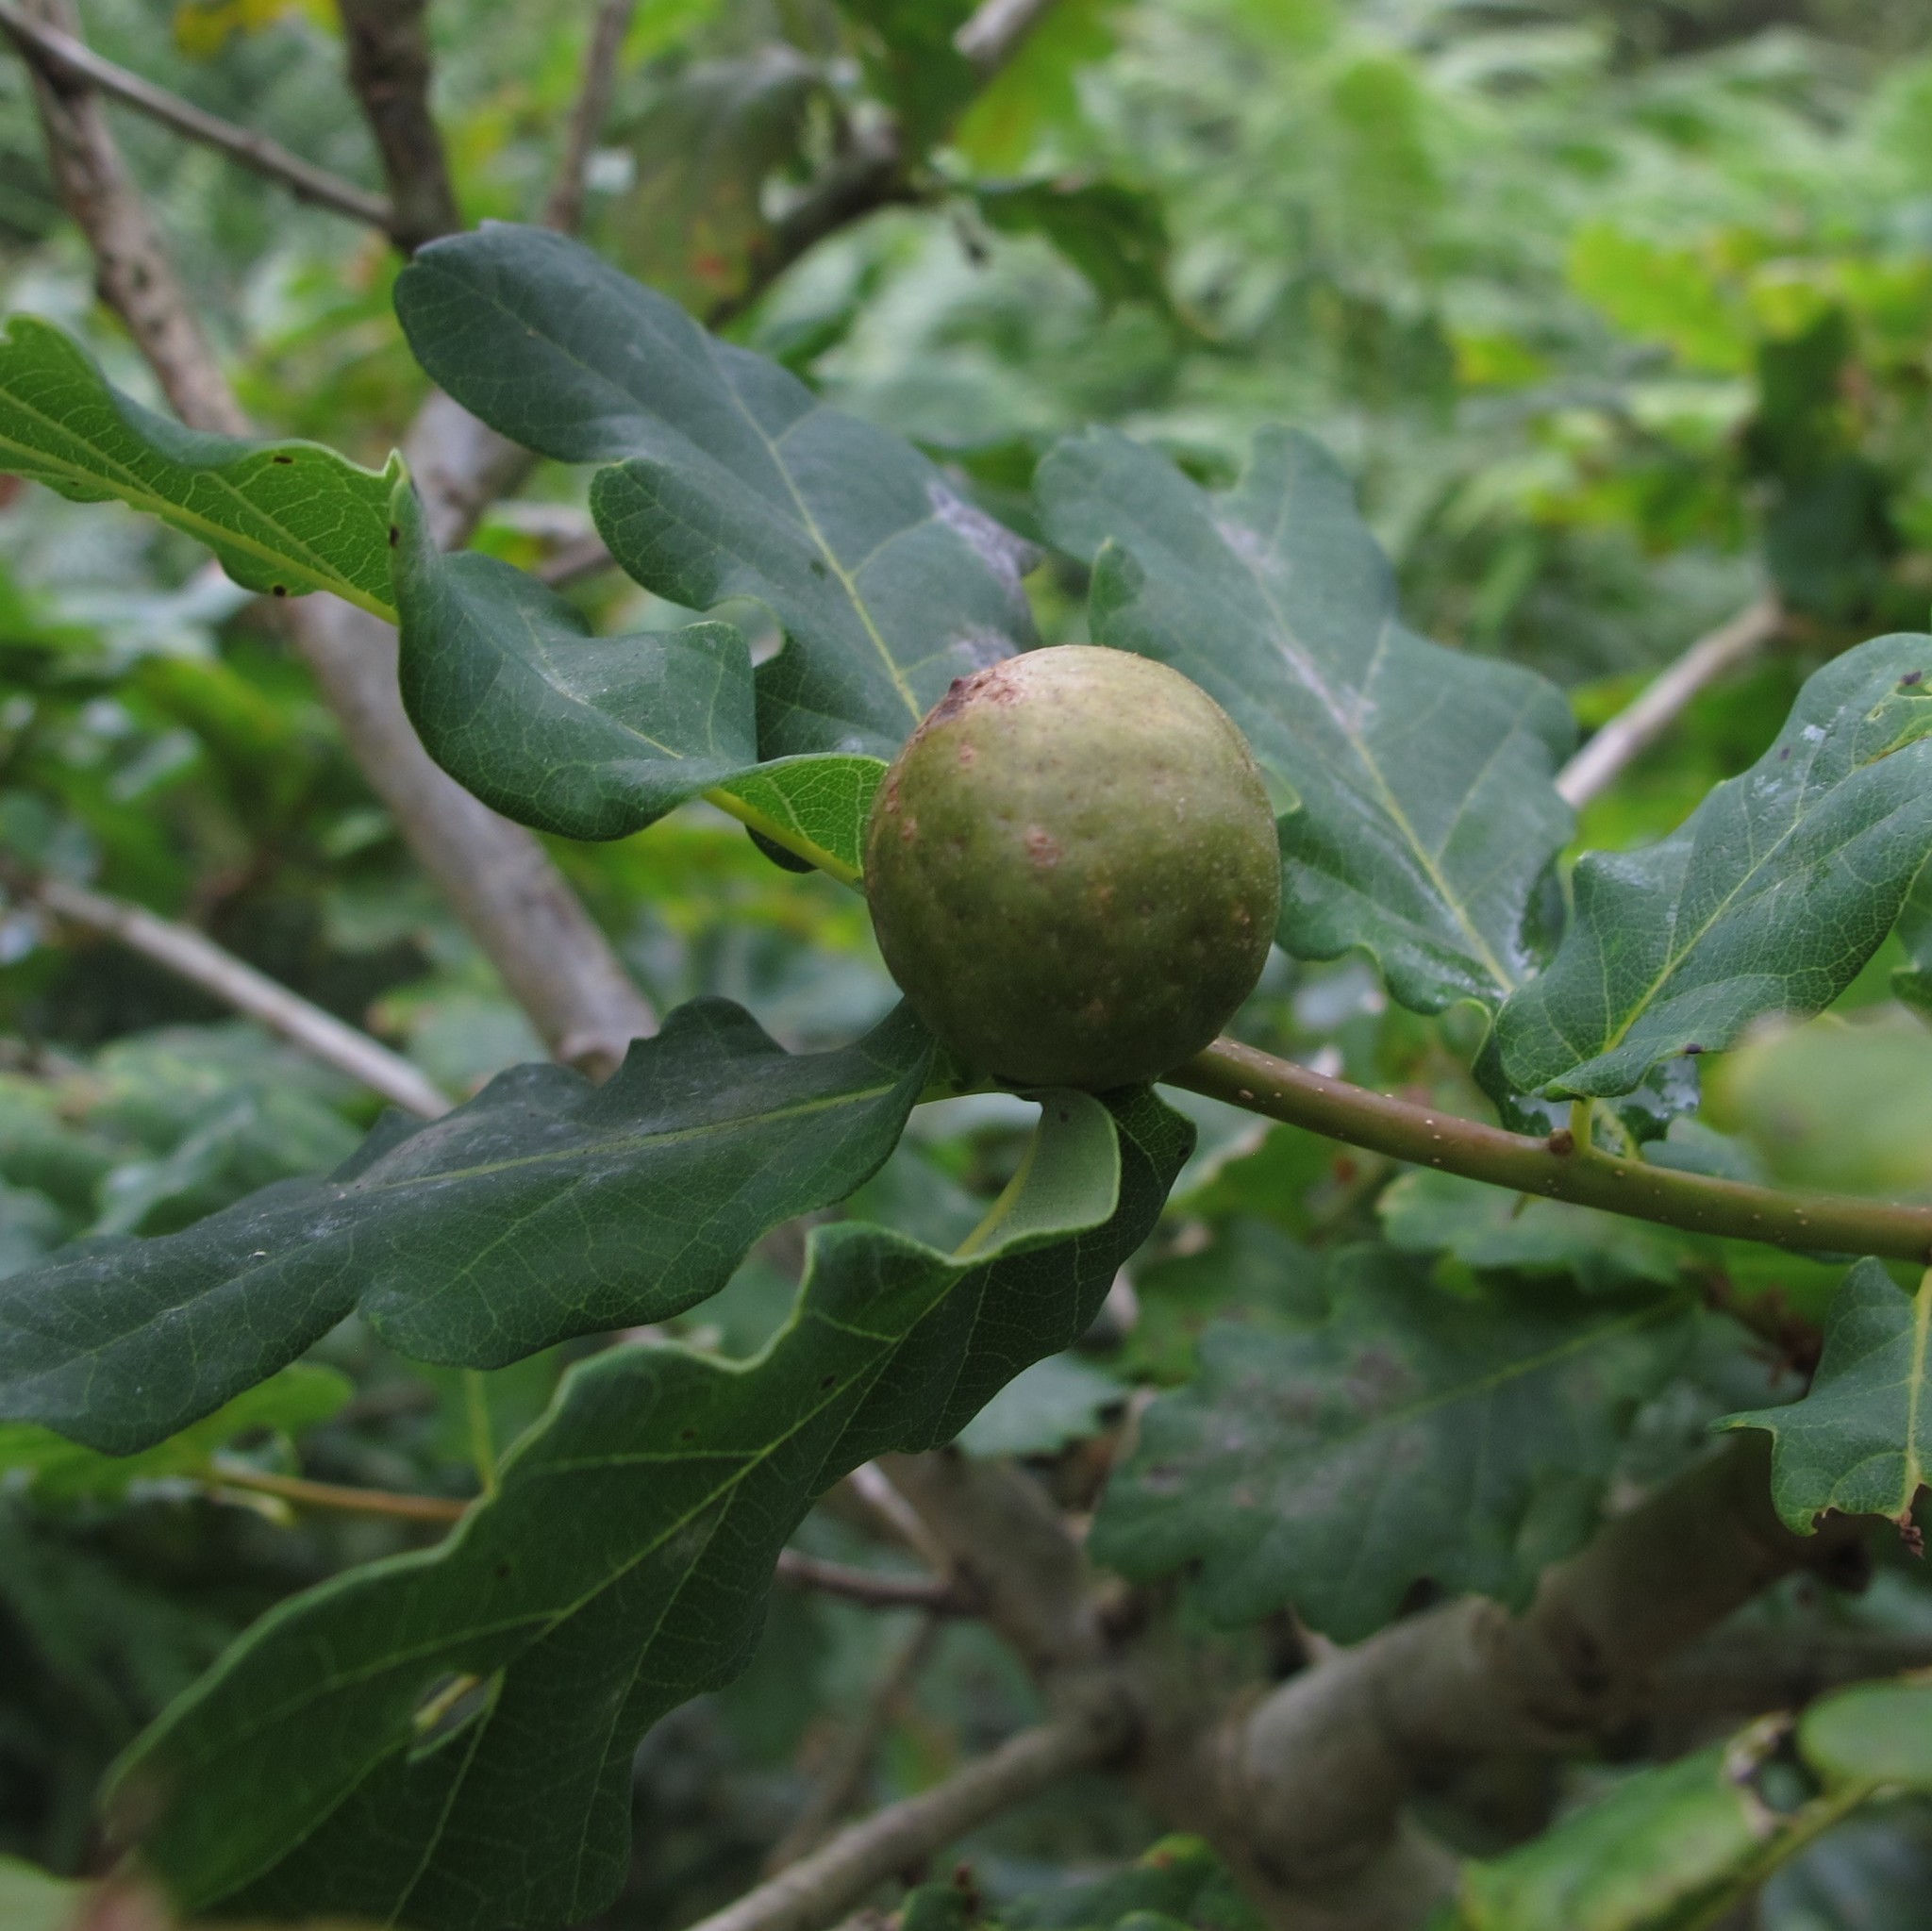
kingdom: Animalia
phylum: Arthropoda
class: Insecta
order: Hymenoptera
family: Cynipidae
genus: Andricus
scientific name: Andricus kollari
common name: Marble gall
